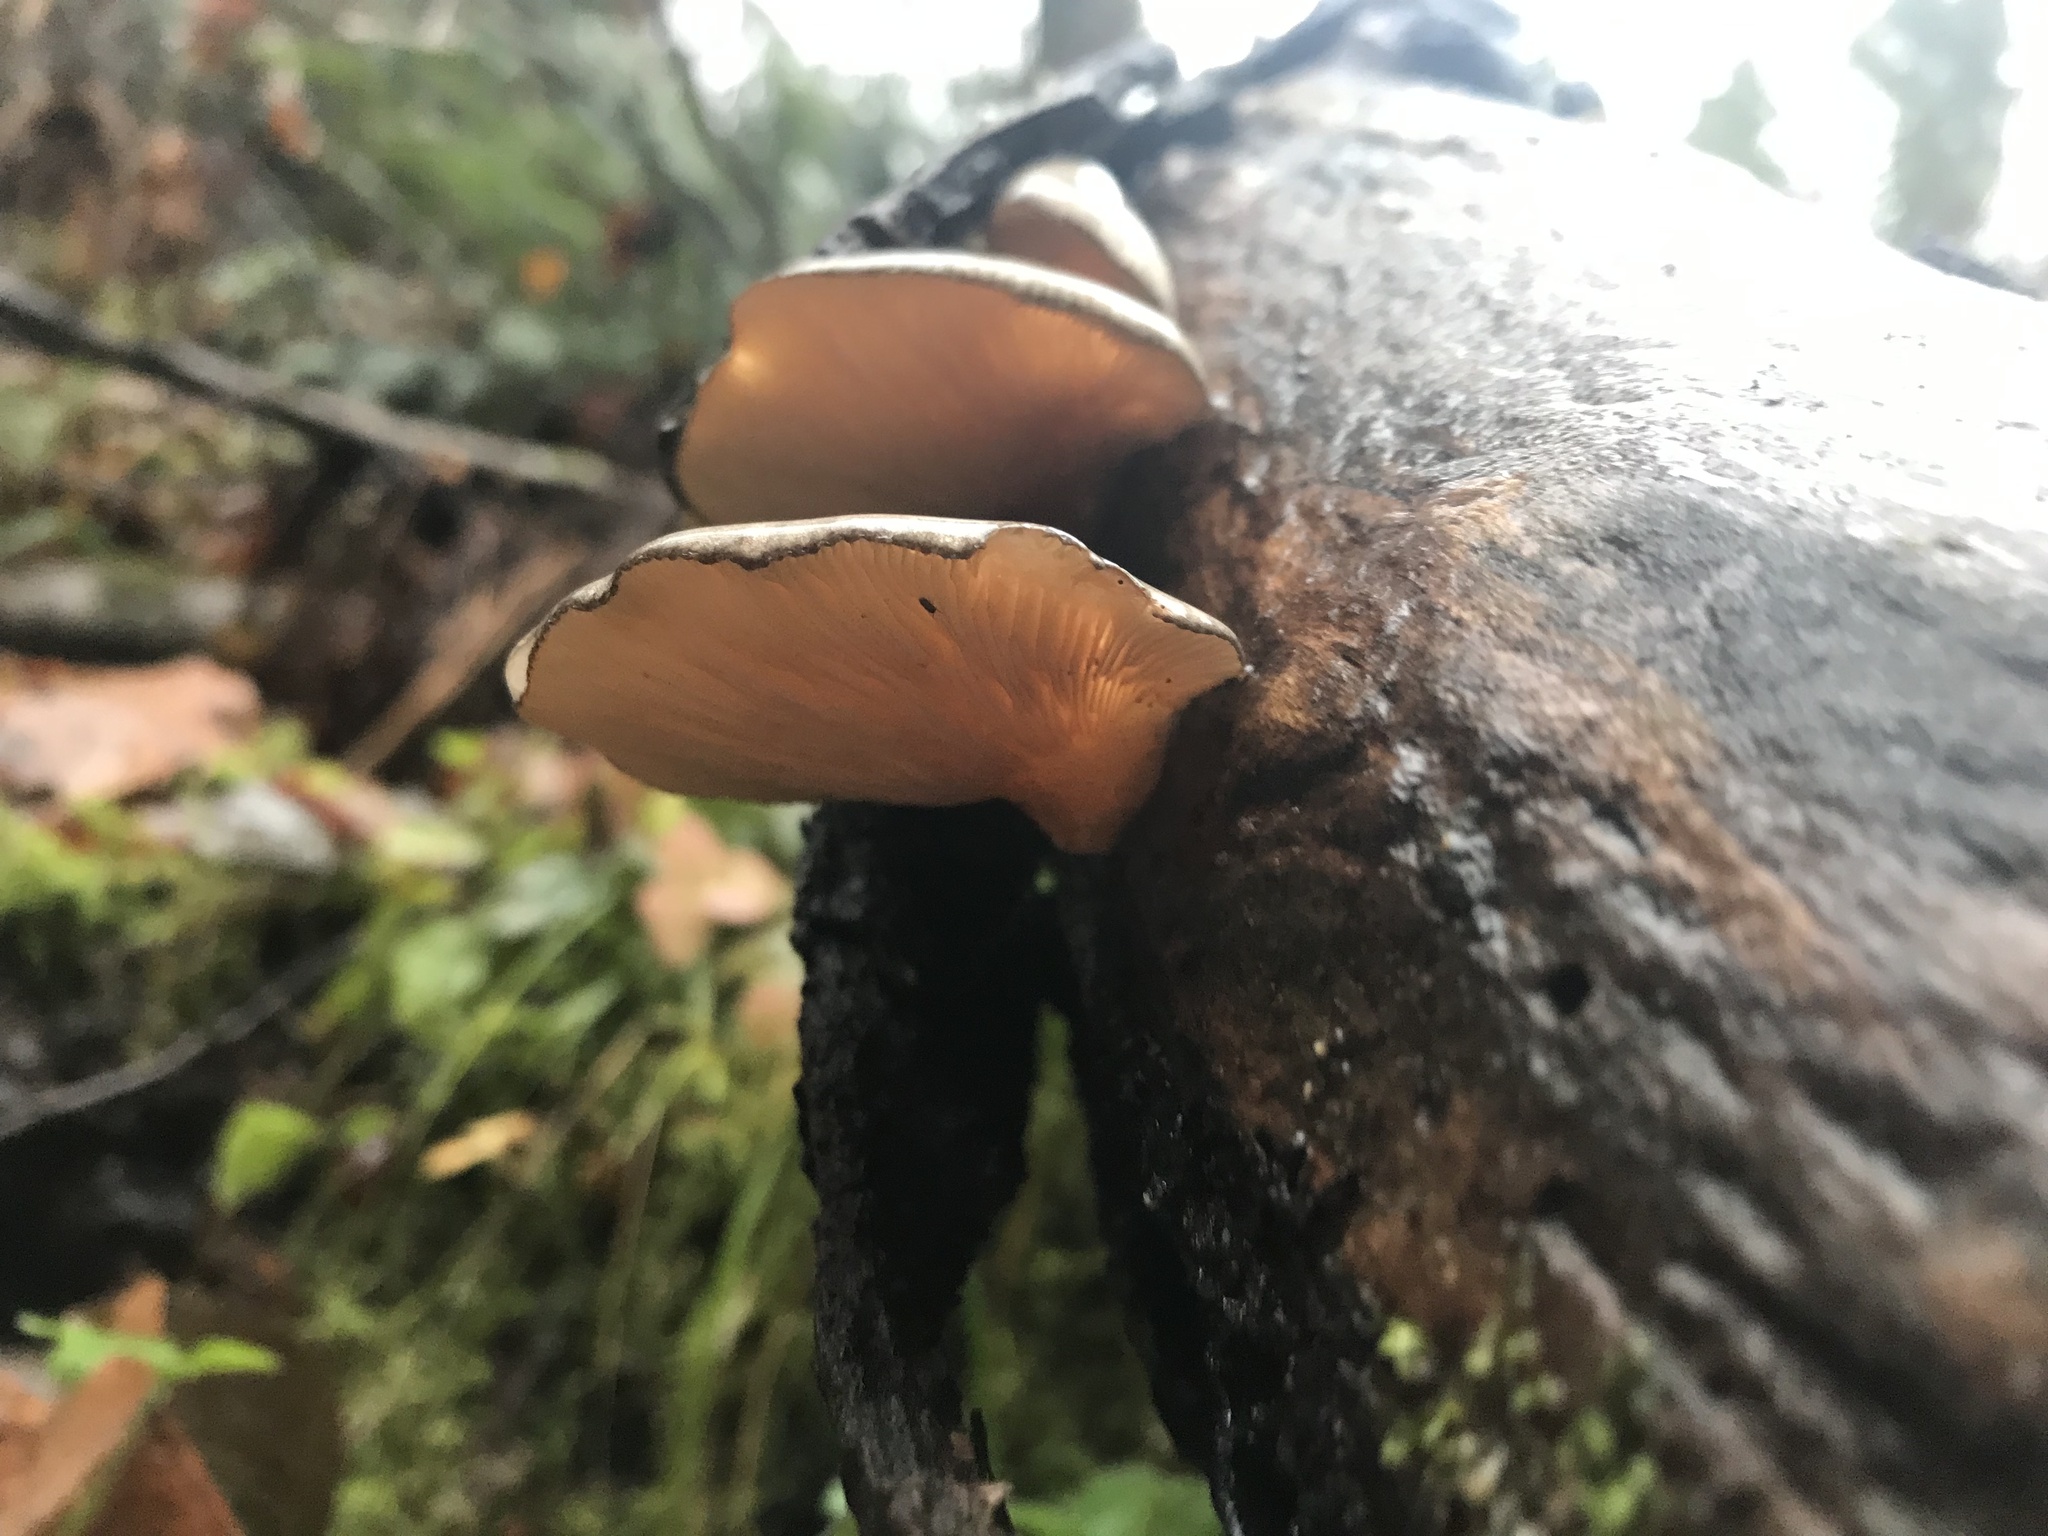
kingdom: Fungi
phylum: Basidiomycota
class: Agaricomycetes
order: Agaricales
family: Sarcomyxaceae
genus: Sarcomyxa
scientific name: Sarcomyxa serotina
